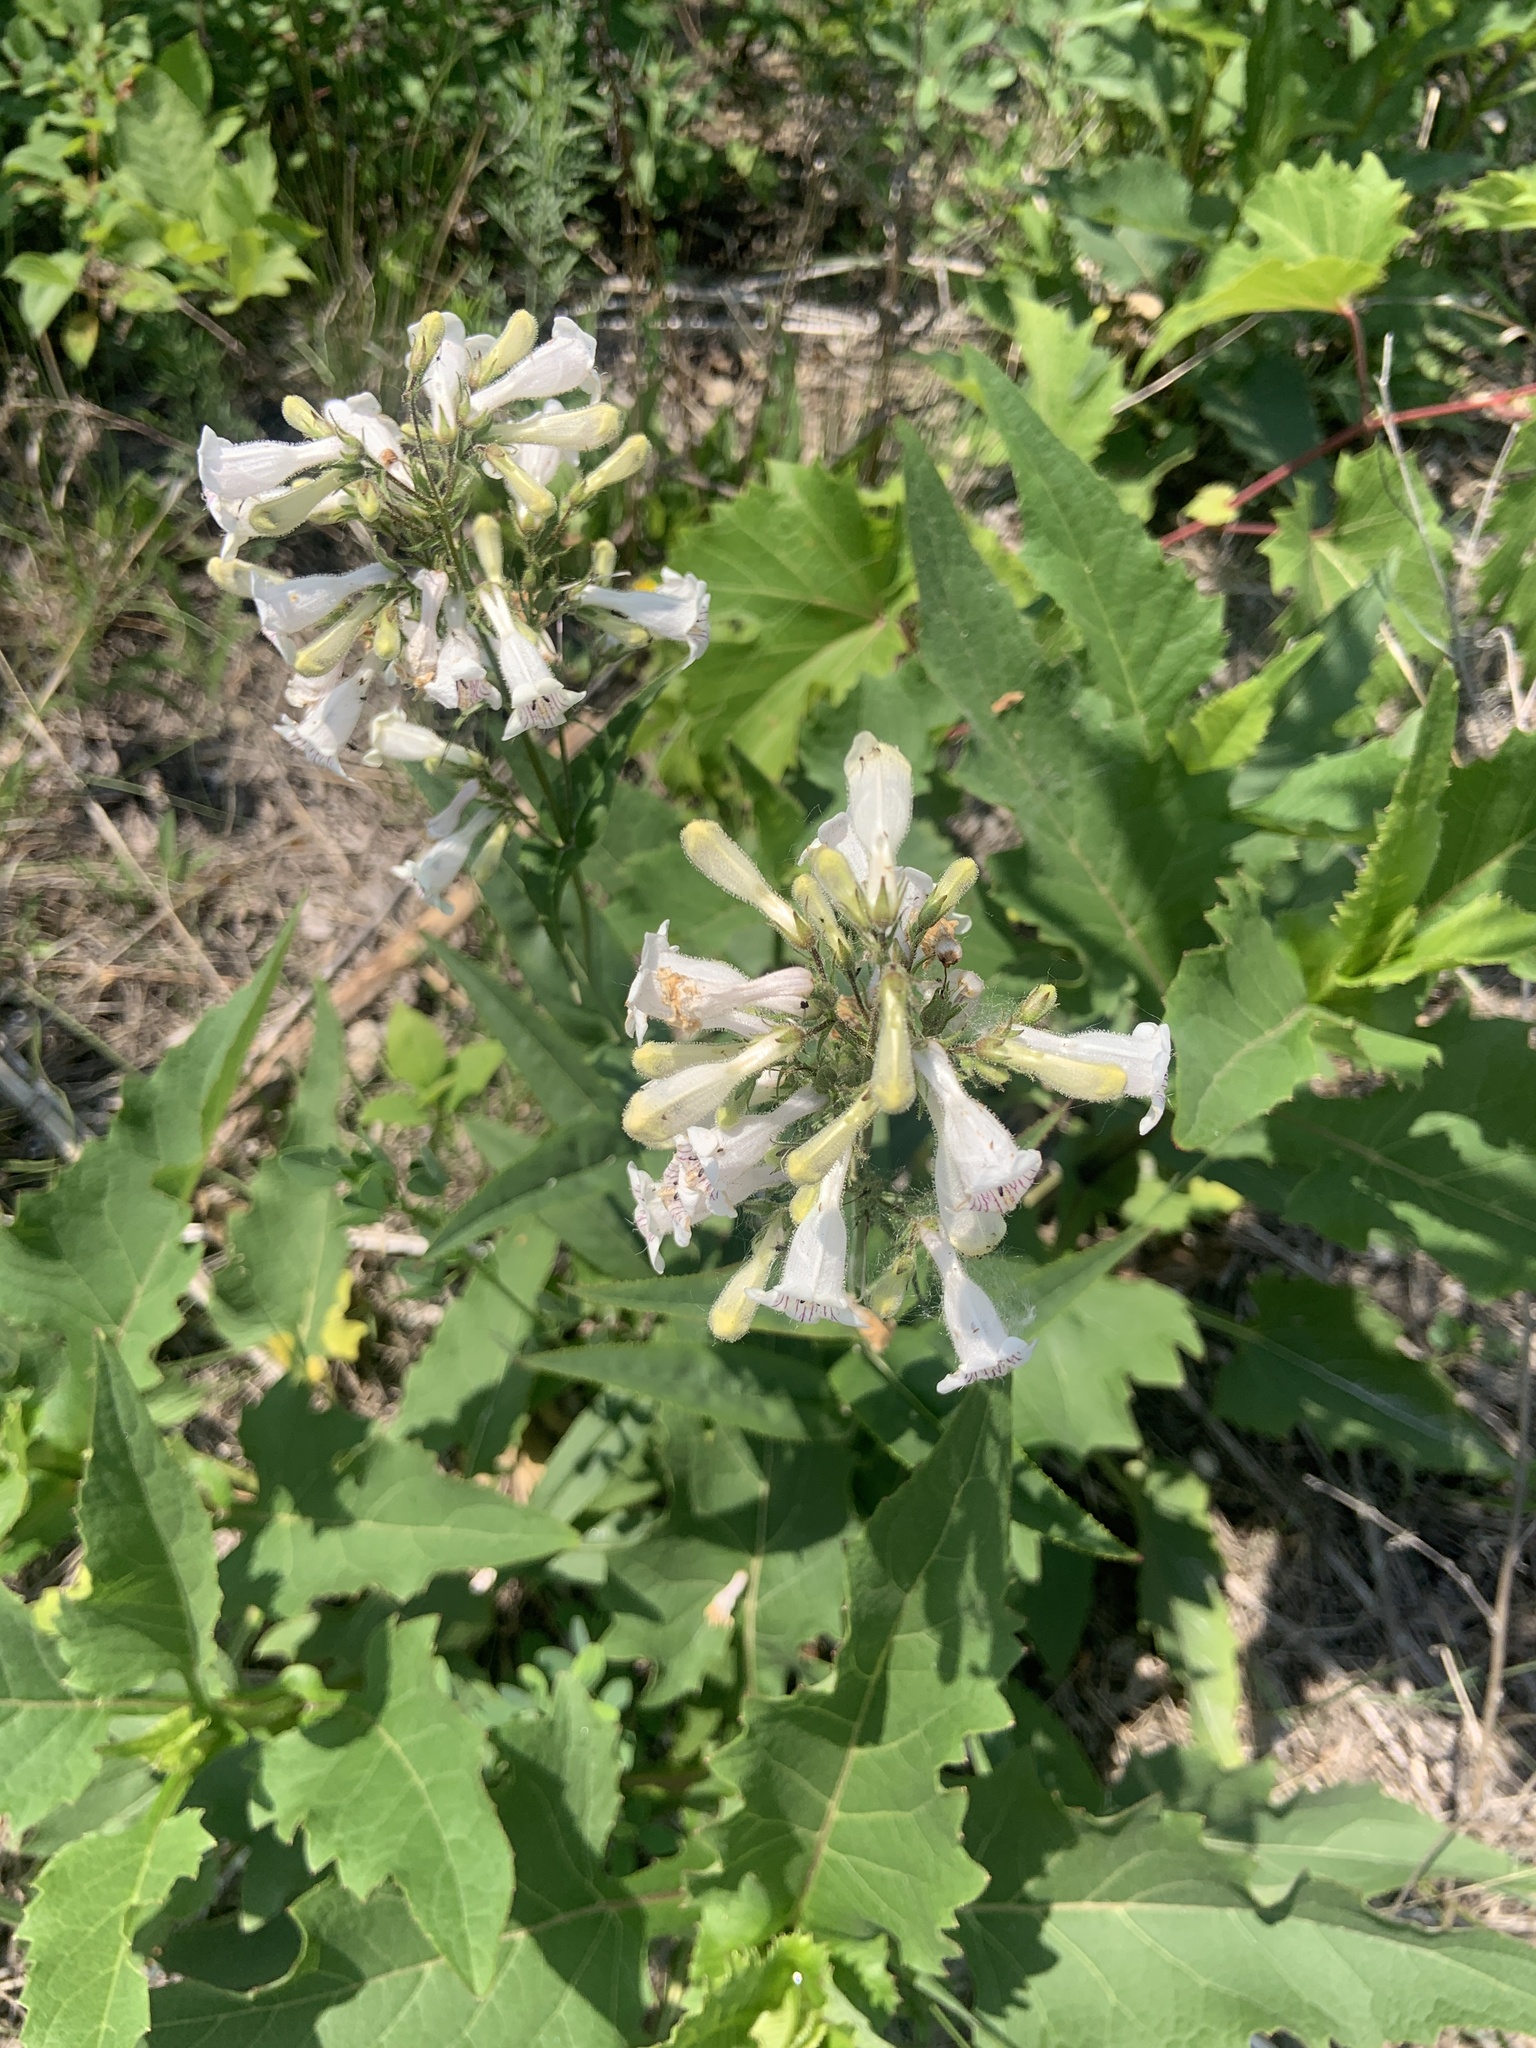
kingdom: Plantae
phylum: Tracheophyta
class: Magnoliopsida
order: Lamiales
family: Plantaginaceae
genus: Penstemon
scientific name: Penstemon digitalis
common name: Foxglove beardtongue
